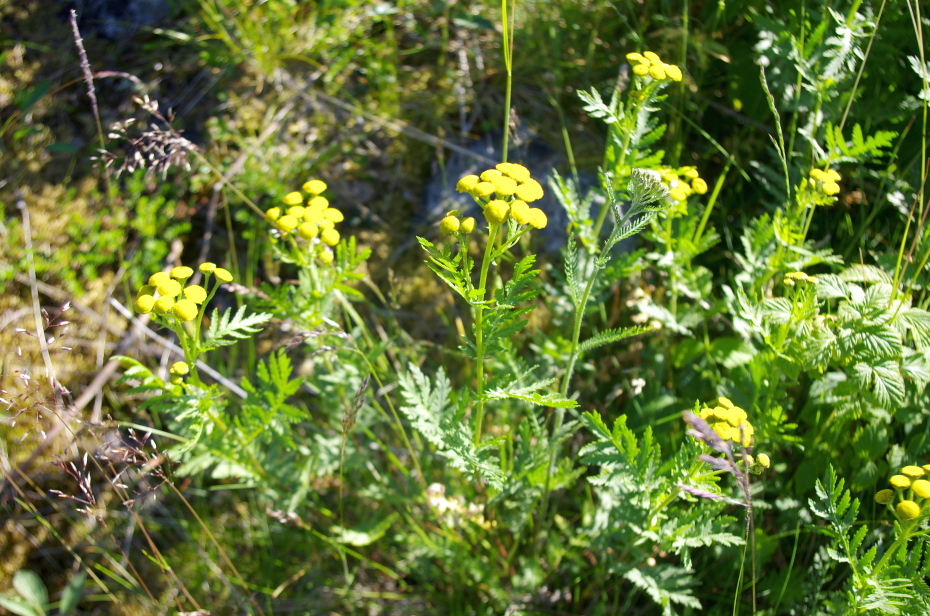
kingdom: Plantae
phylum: Tracheophyta
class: Magnoliopsida
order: Asterales
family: Asteraceae
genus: Tanacetum
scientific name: Tanacetum vulgare
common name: Common tansy
